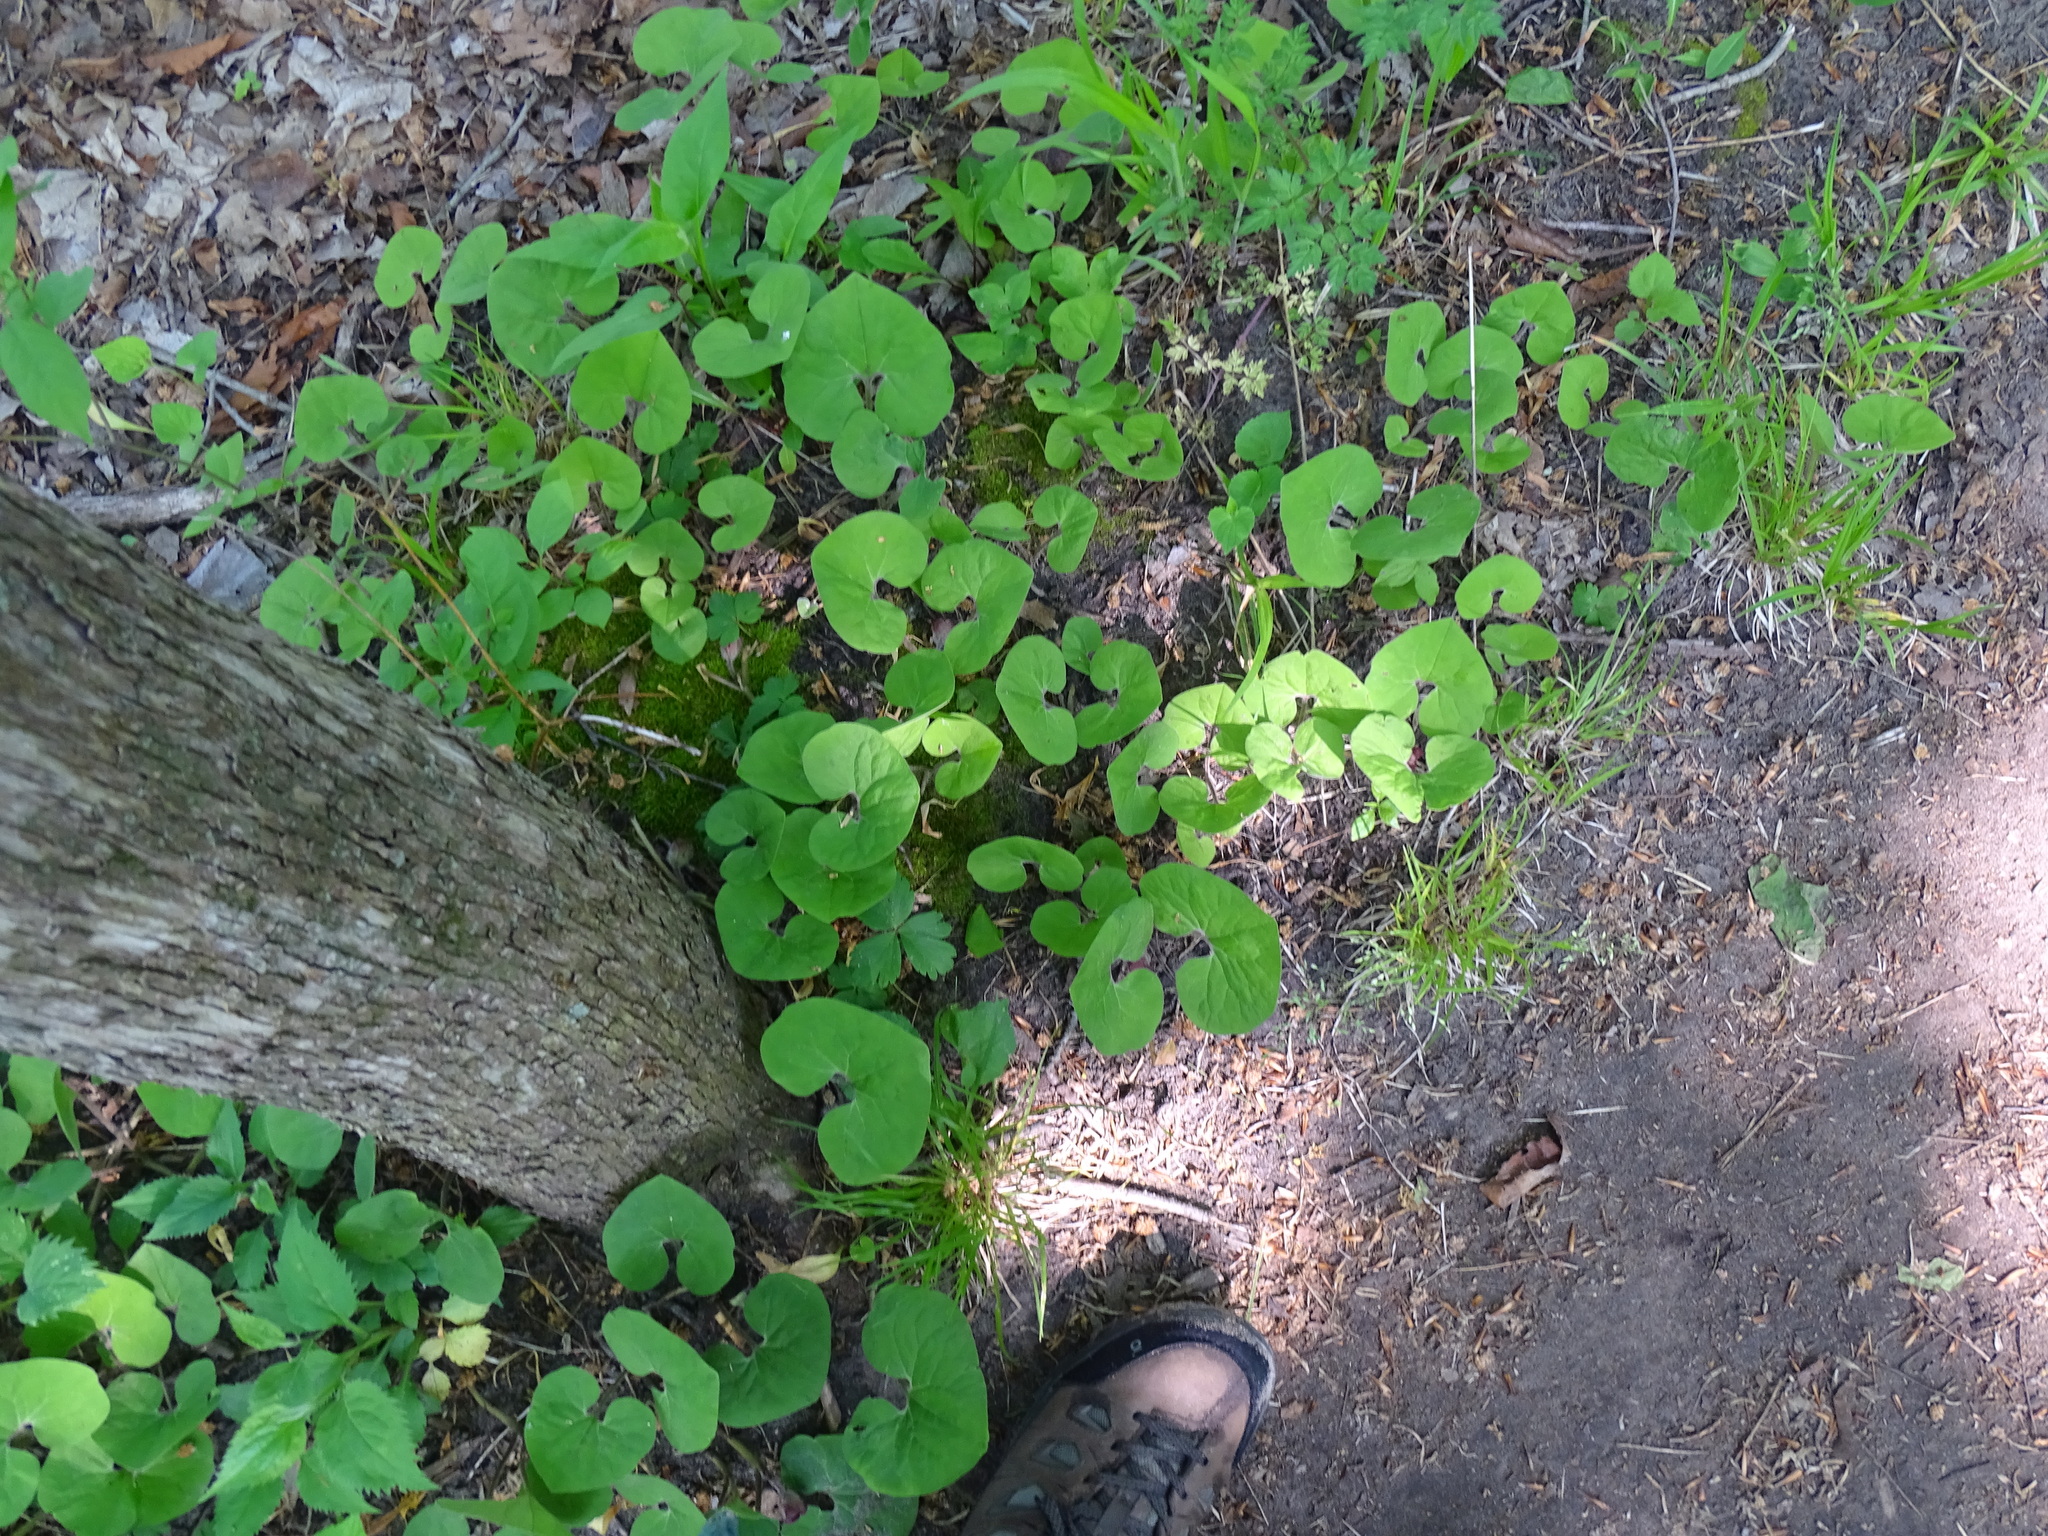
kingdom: Plantae
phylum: Tracheophyta
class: Magnoliopsida
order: Piperales
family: Aristolochiaceae
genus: Asarum
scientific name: Asarum canadense
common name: Wild ginger
